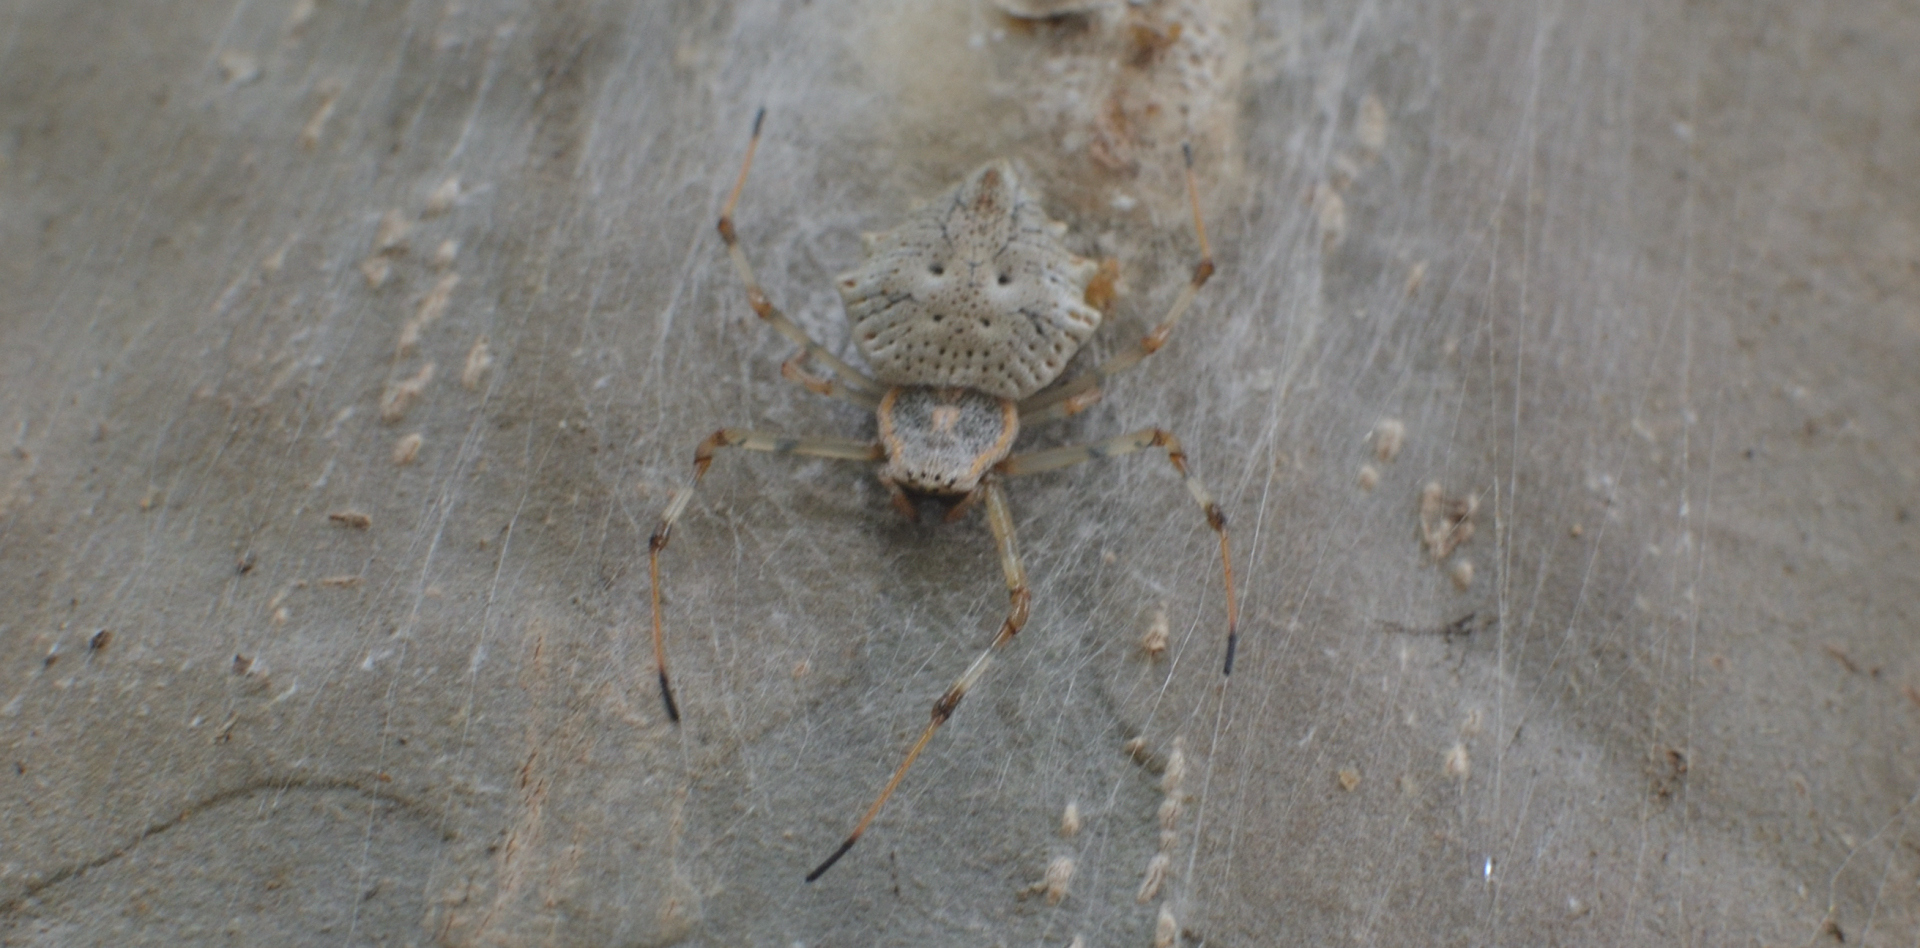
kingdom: Animalia
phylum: Arthropoda
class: Arachnida
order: Araneae
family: Araneidae
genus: Herennia
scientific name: Herennia multipuncta
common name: Spotted coin spider
